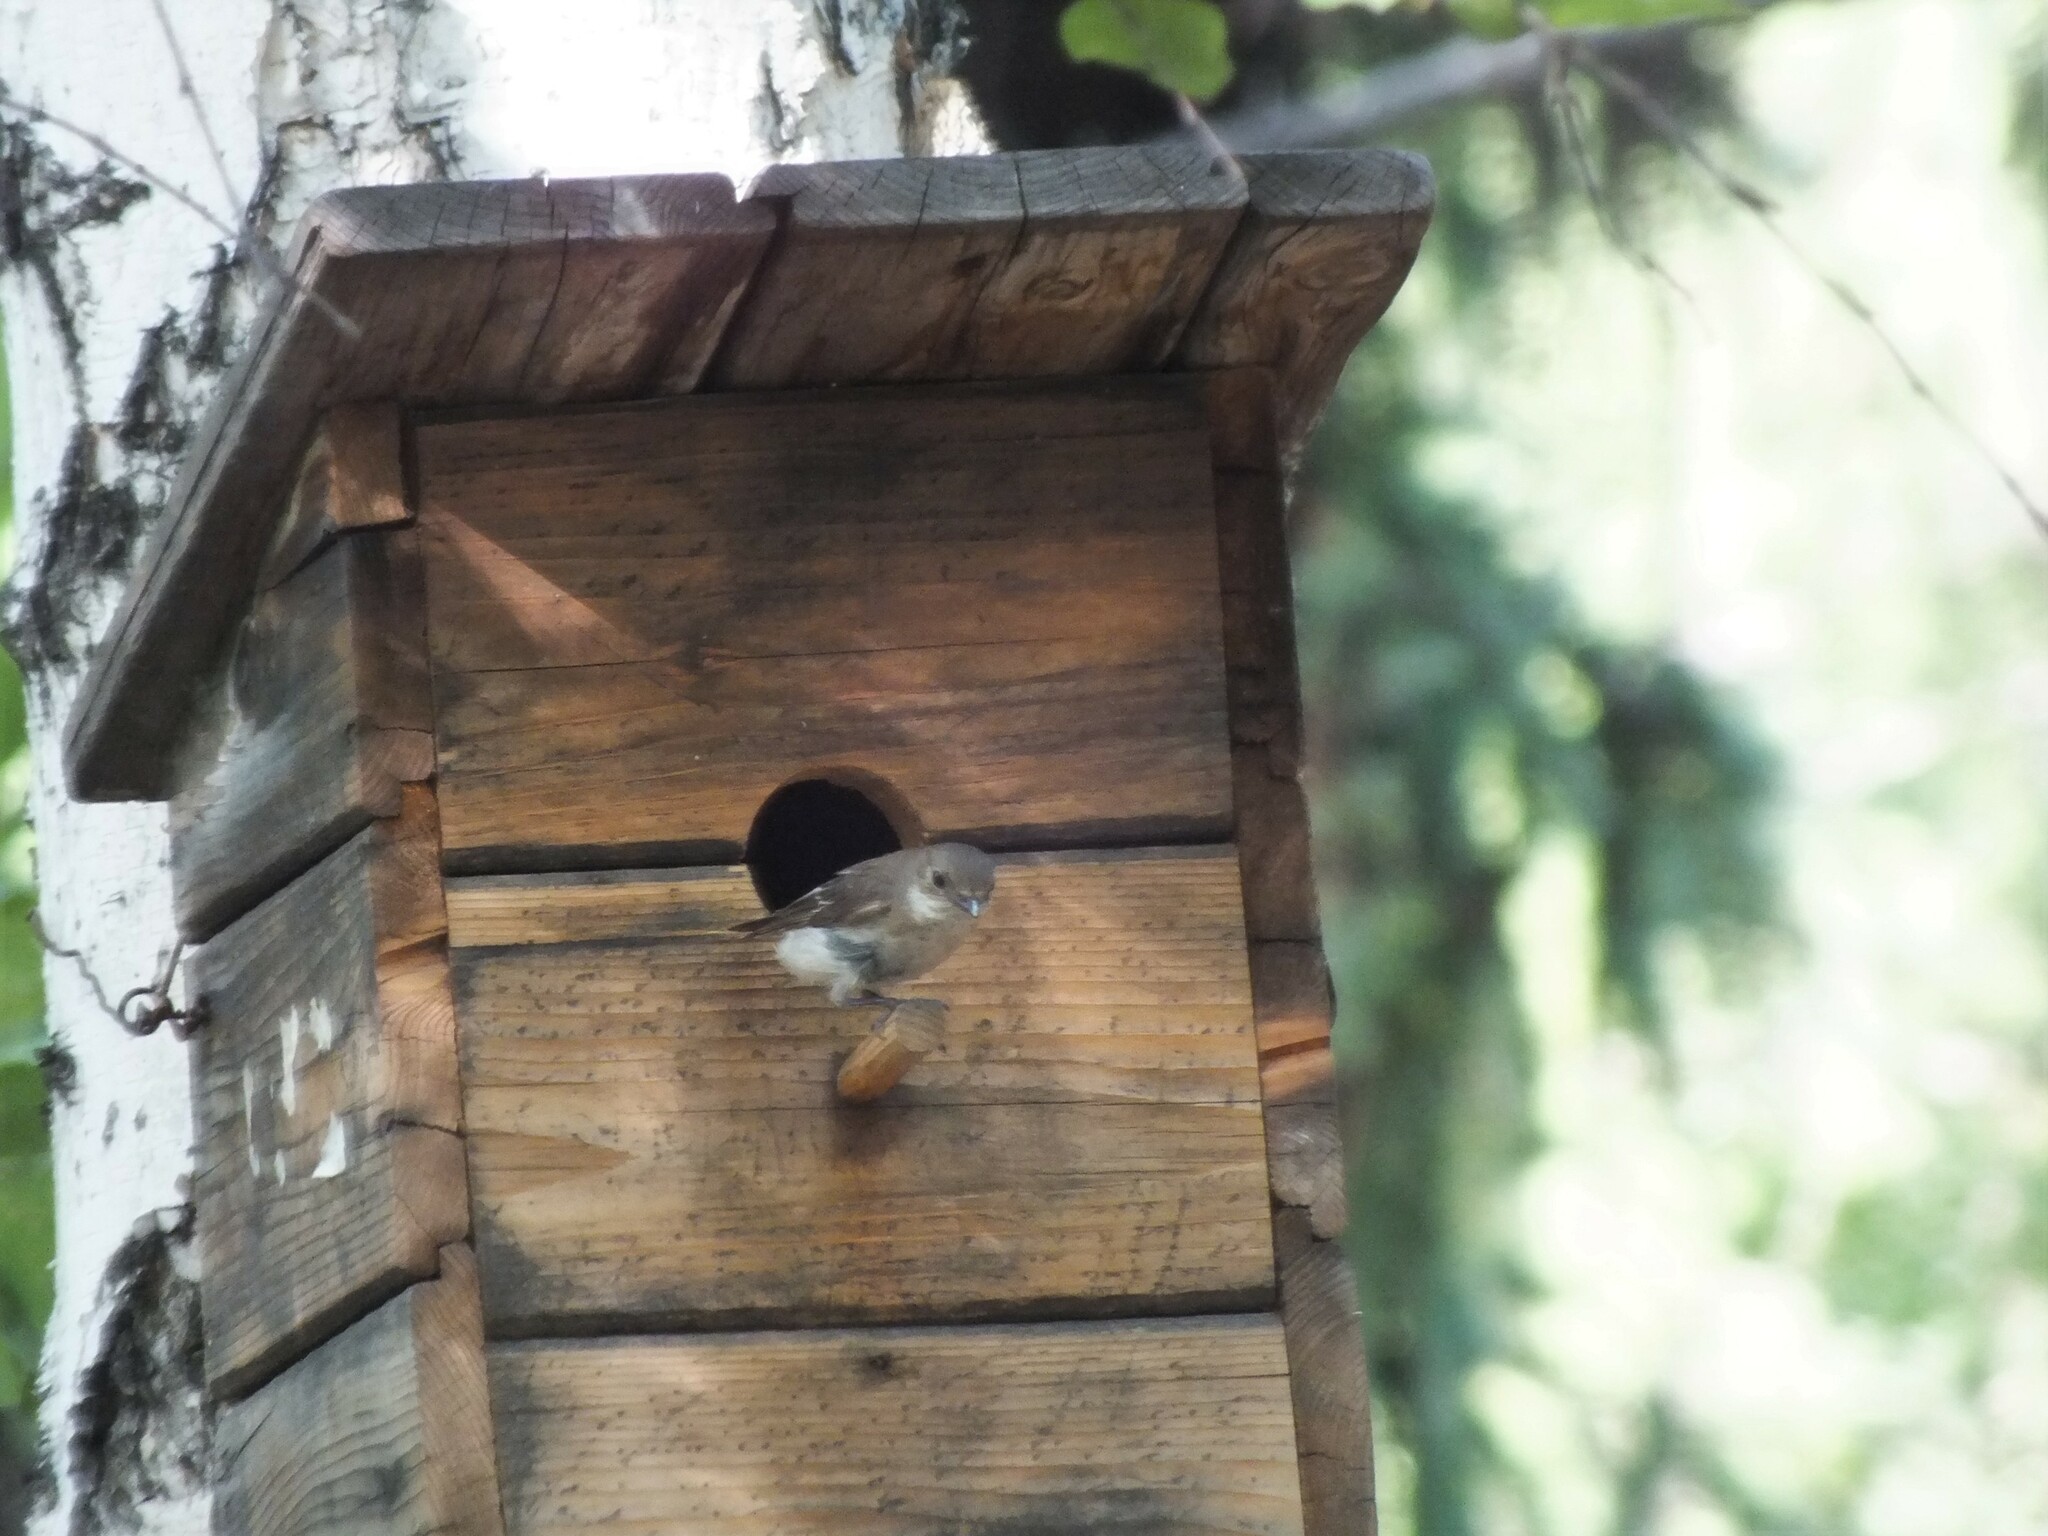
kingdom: Animalia
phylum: Chordata
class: Aves
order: Passeriformes
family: Muscicapidae
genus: Ficedula
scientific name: Ficedula hypoleuca
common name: European pied flycatcher
